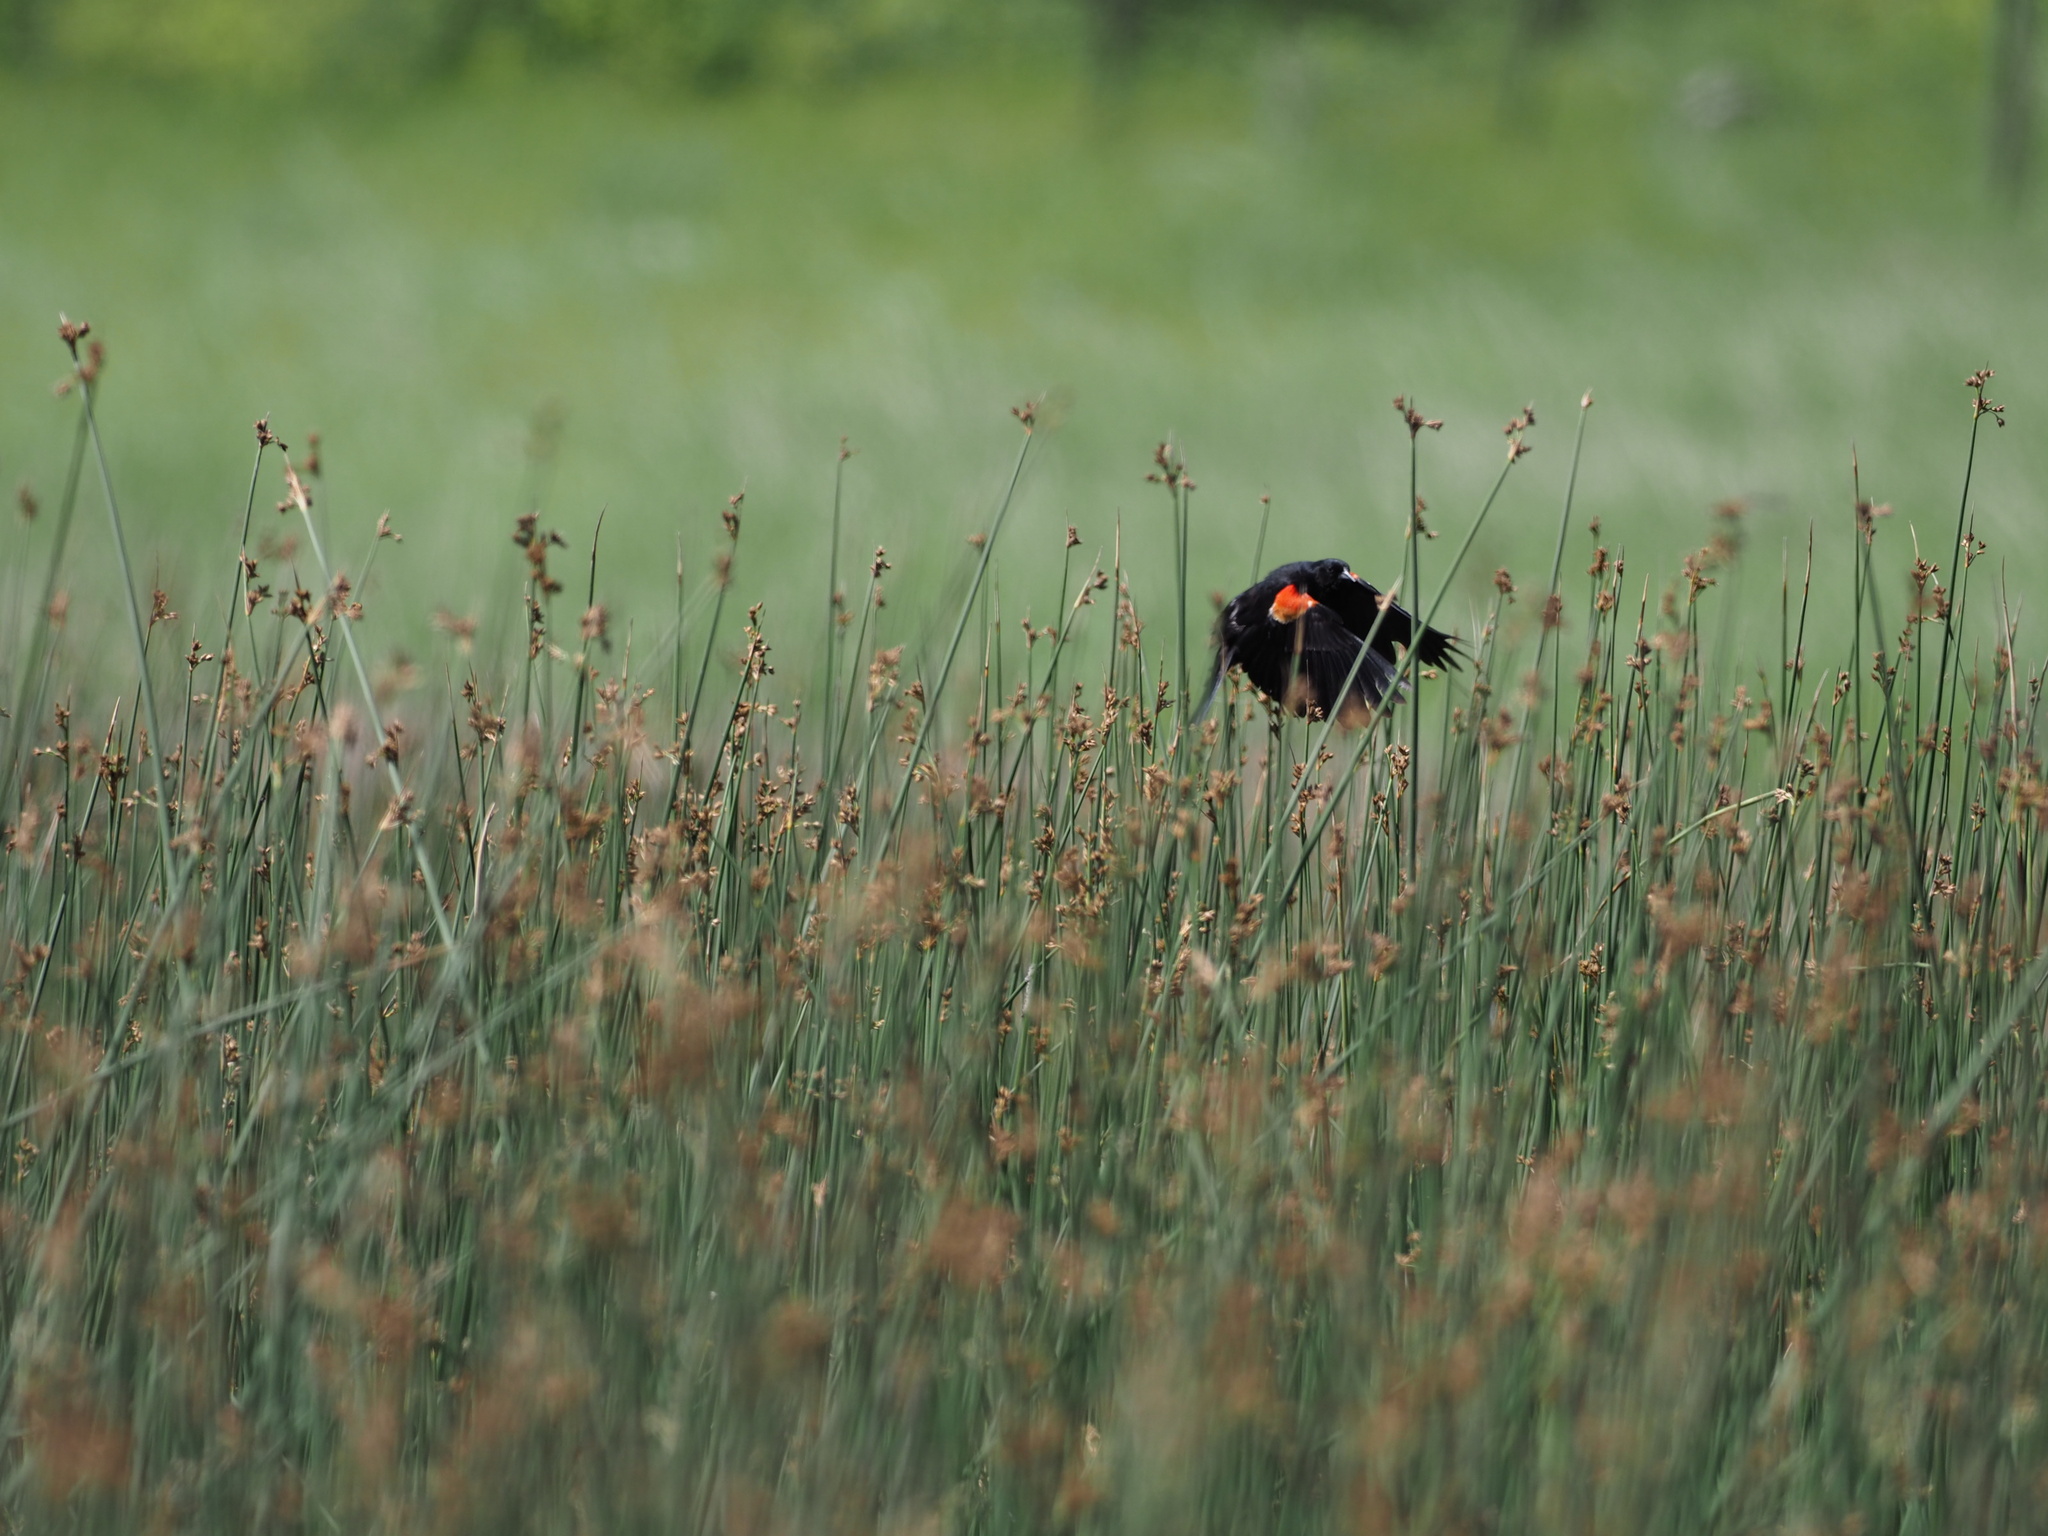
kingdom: Animalia
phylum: Chordata
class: Aves
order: Passeriformes
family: Icteridae
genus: Agelaius
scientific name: Agelaius phoeniceus
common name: Red-winged blackbird
